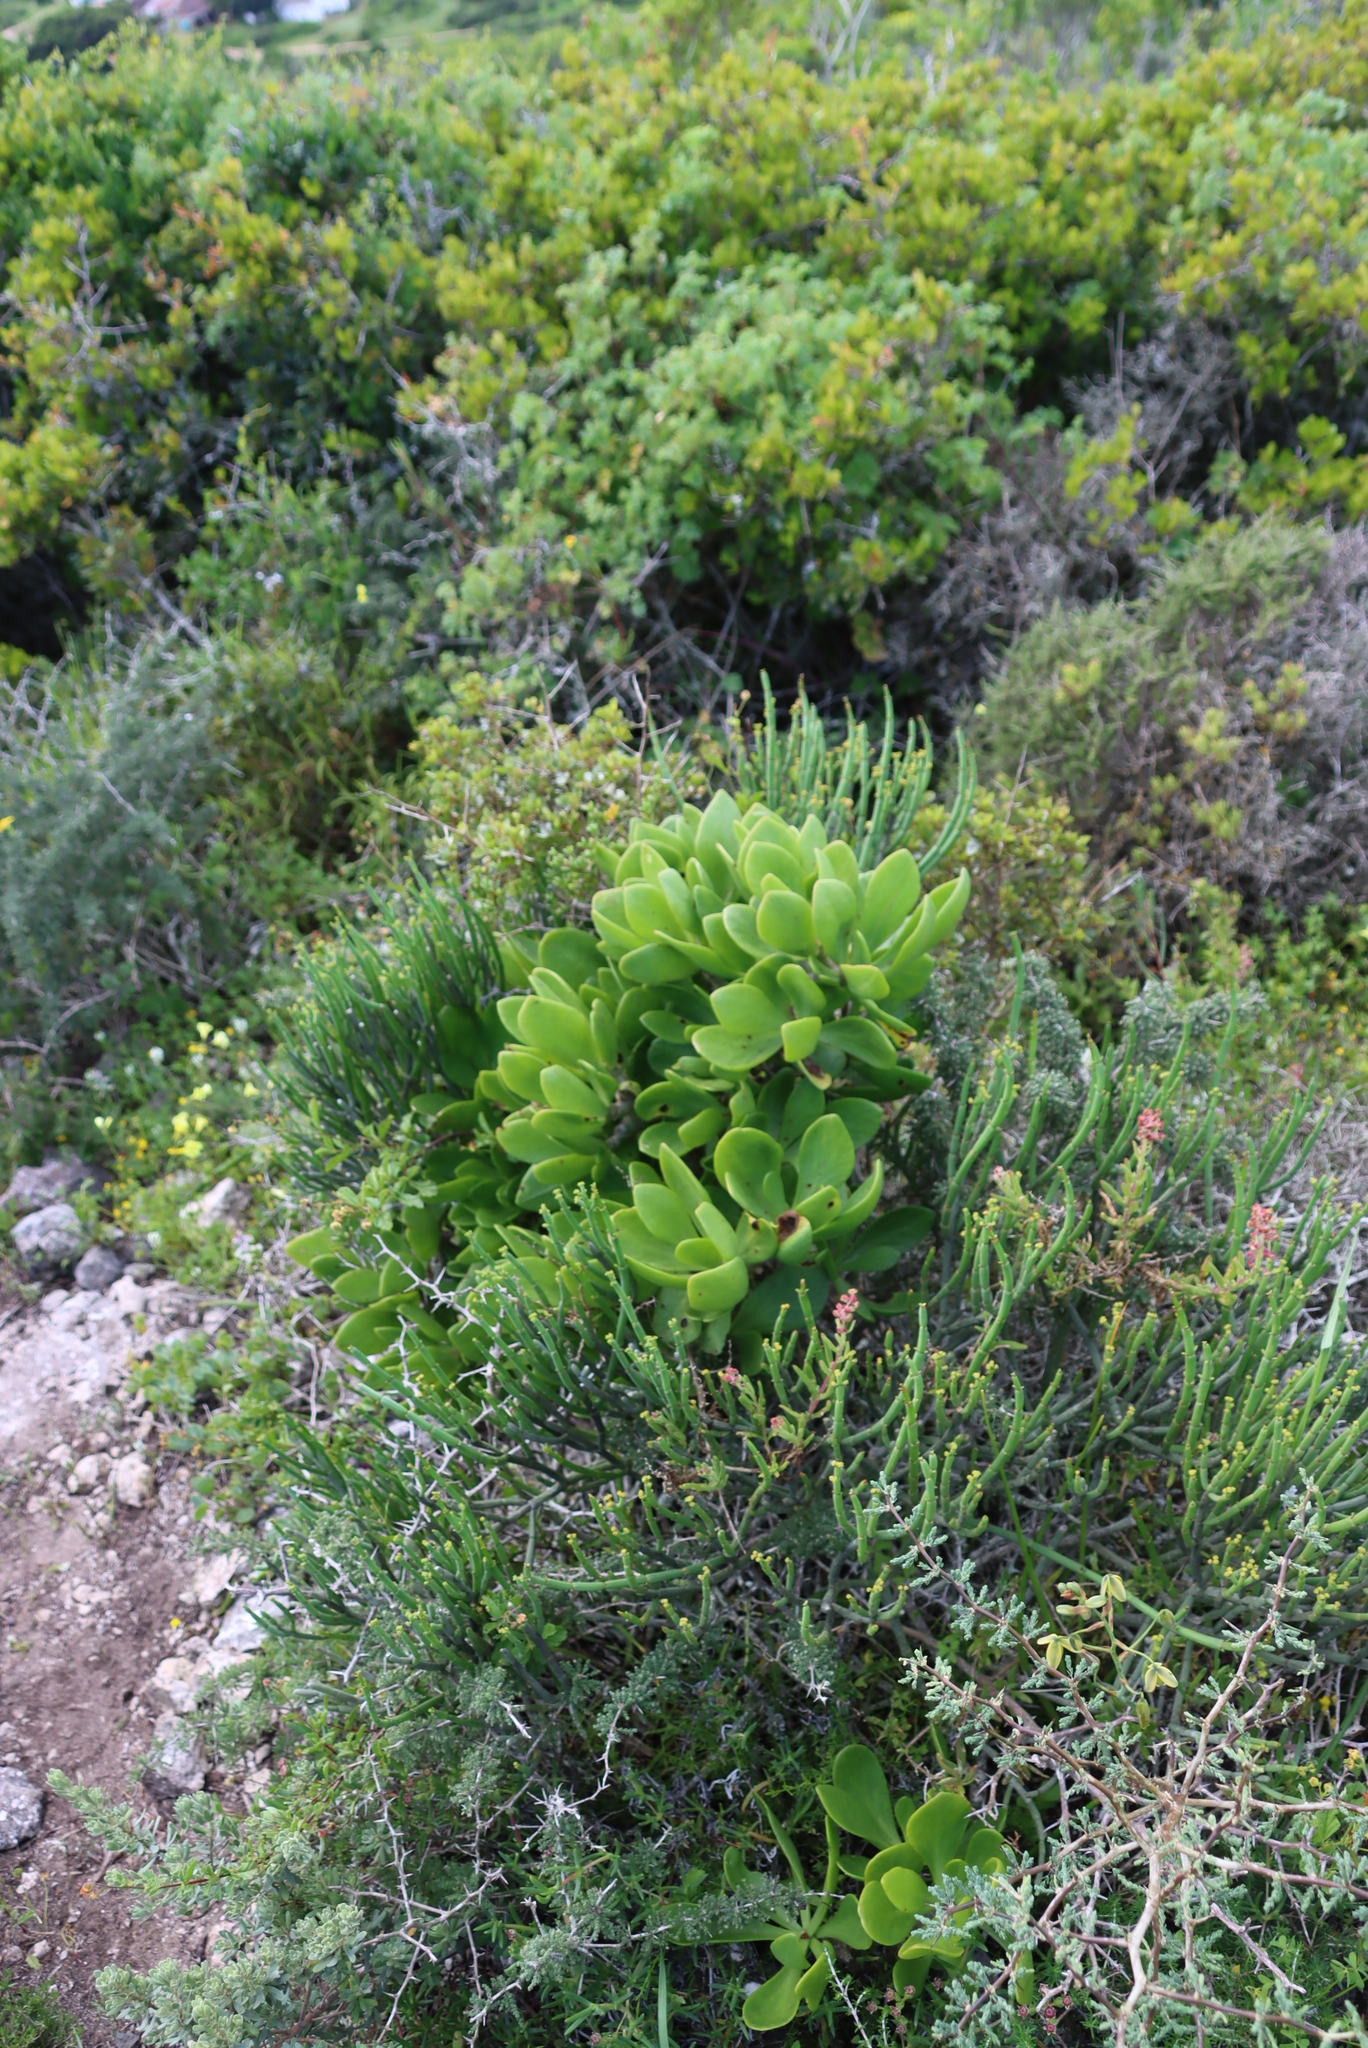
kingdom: Plantae
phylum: Tracheophyta
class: Magnoliopsida
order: Saxifragales
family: Crassulaceae
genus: Tylecodon
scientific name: Tylecodon paniculatus
